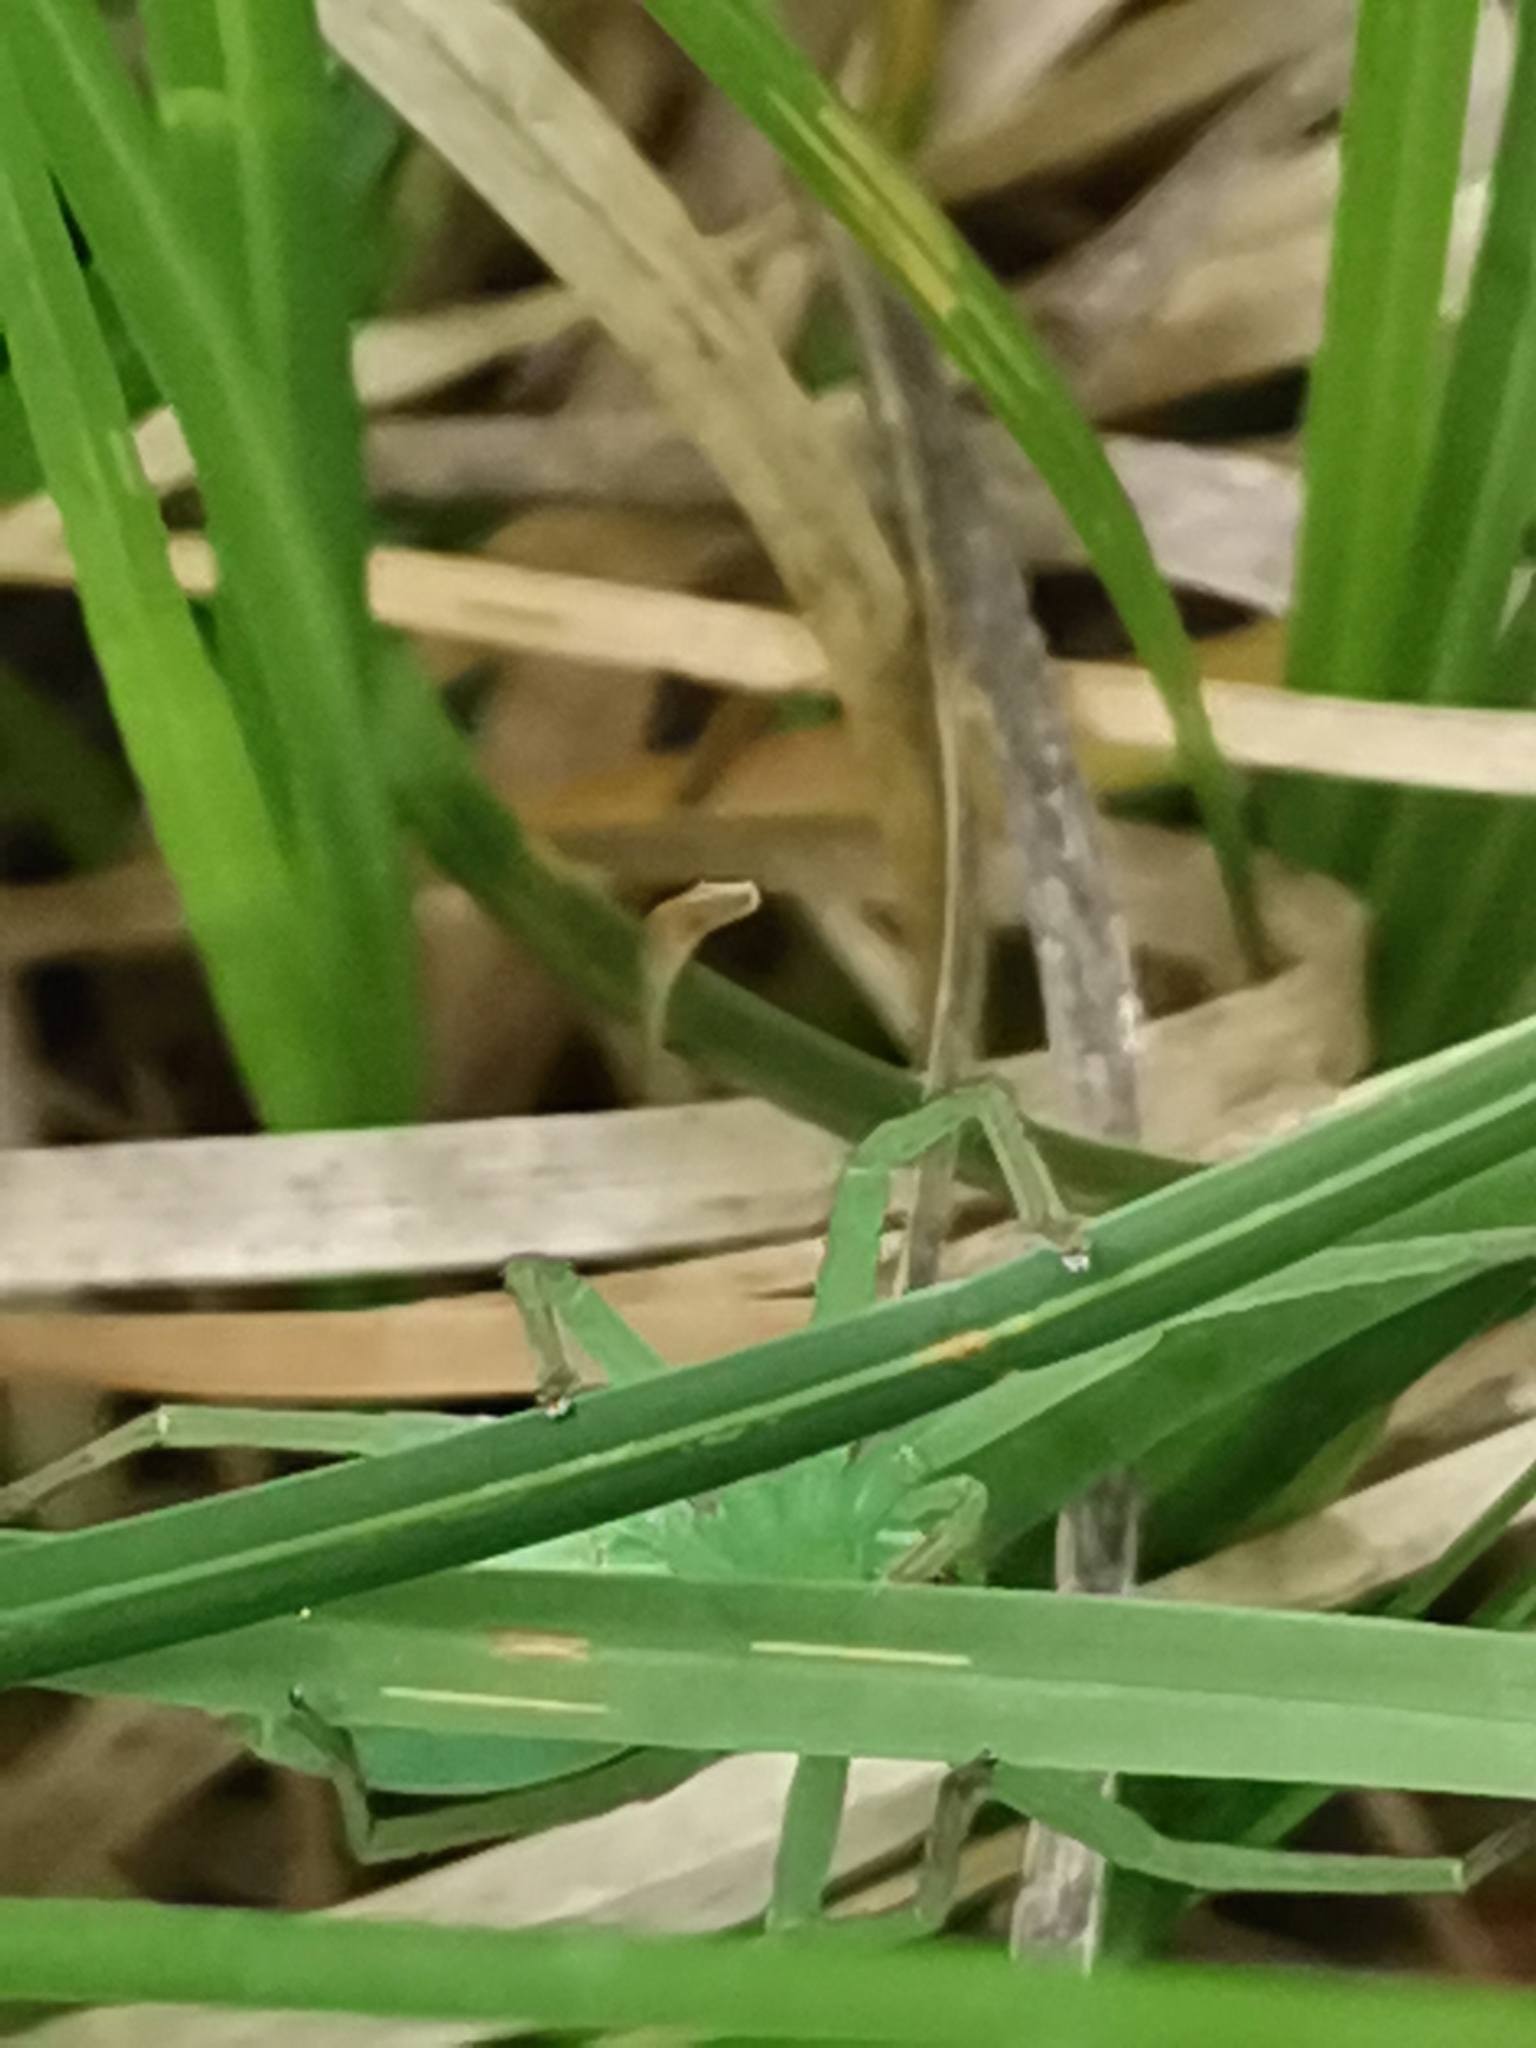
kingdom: Animalia
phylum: Arthropoda
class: Arachnida
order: Araneae
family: Sparassidae
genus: Micrommata
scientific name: Micrommata virescens
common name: Green spider
